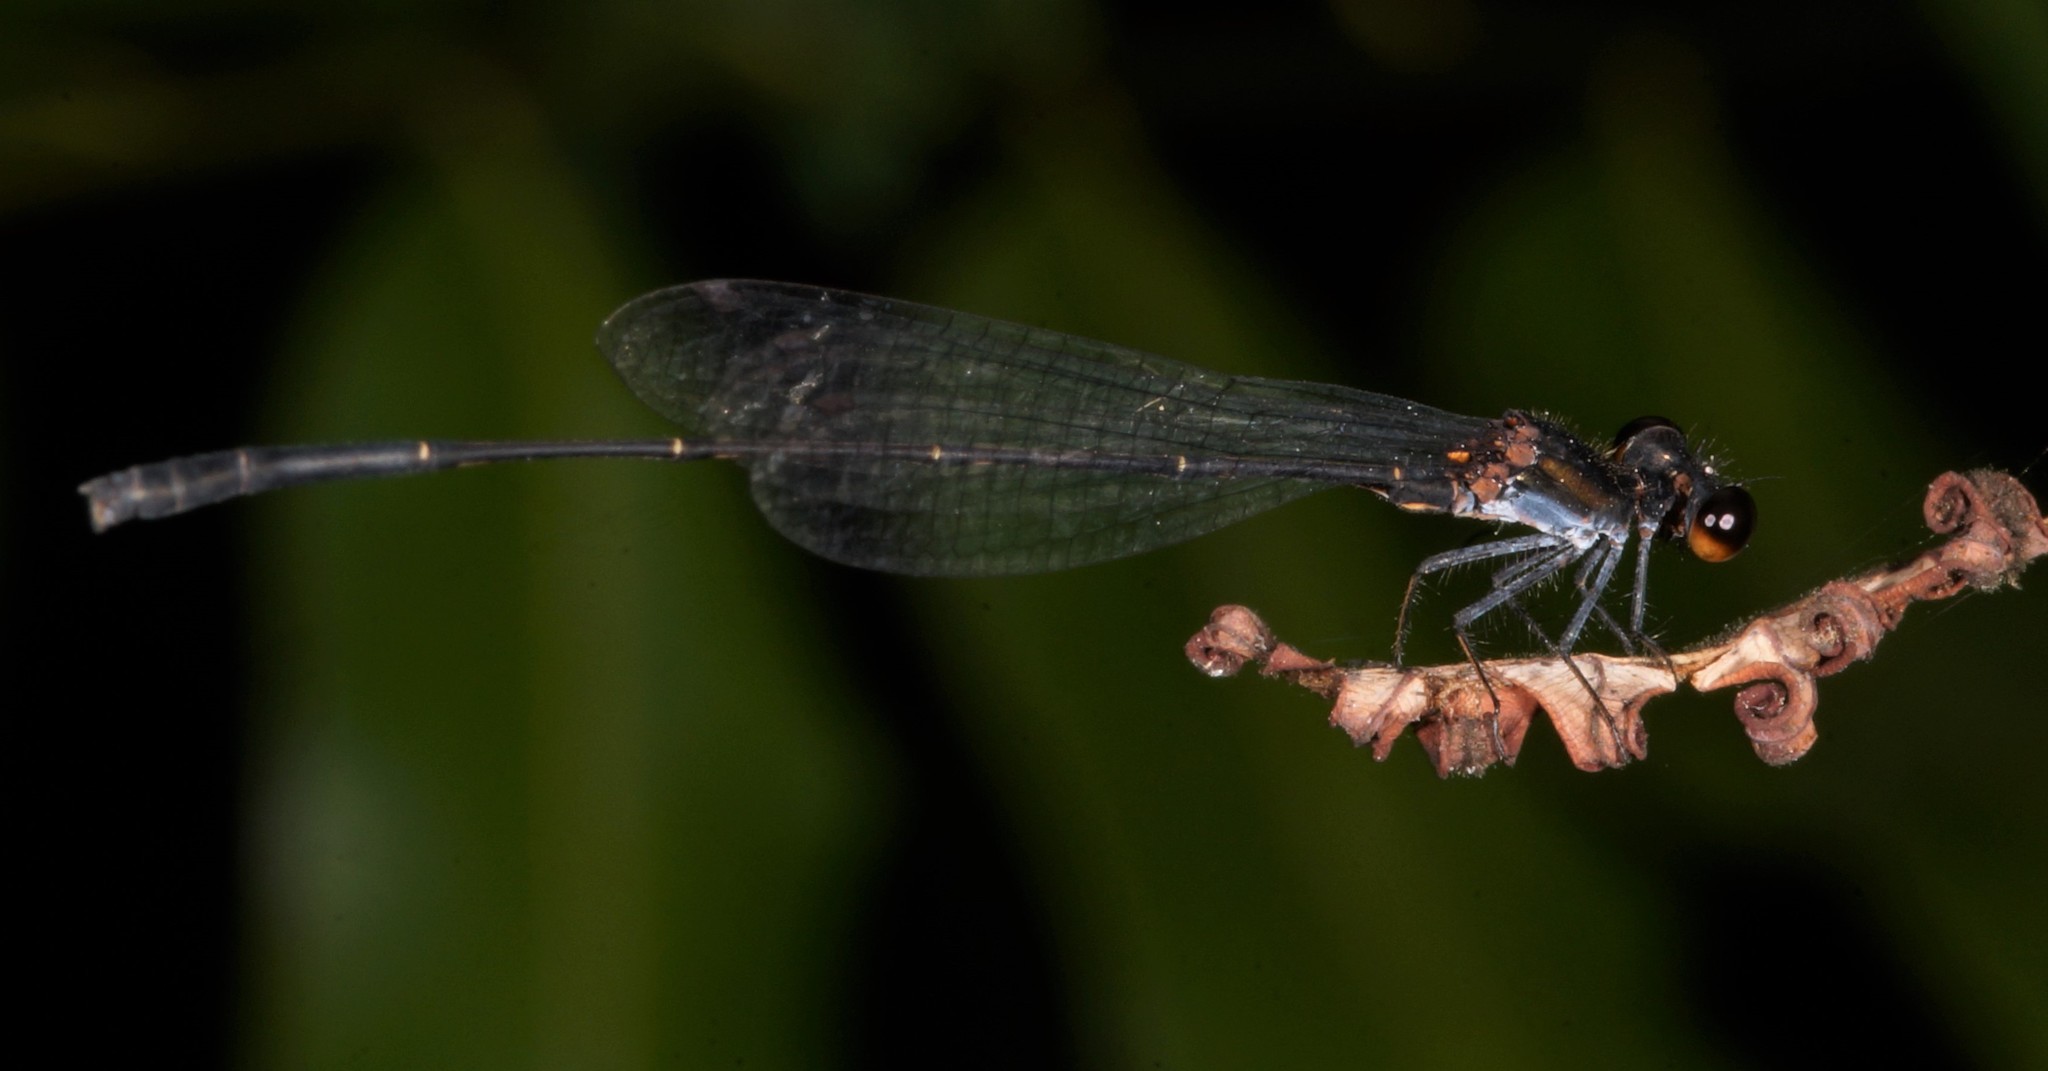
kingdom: Animalia
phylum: Arthropoda
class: Insecta
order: Odonata
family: Platycnemididae
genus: Prodasineura
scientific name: Prodasineura autumnalis
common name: Black threadtail
